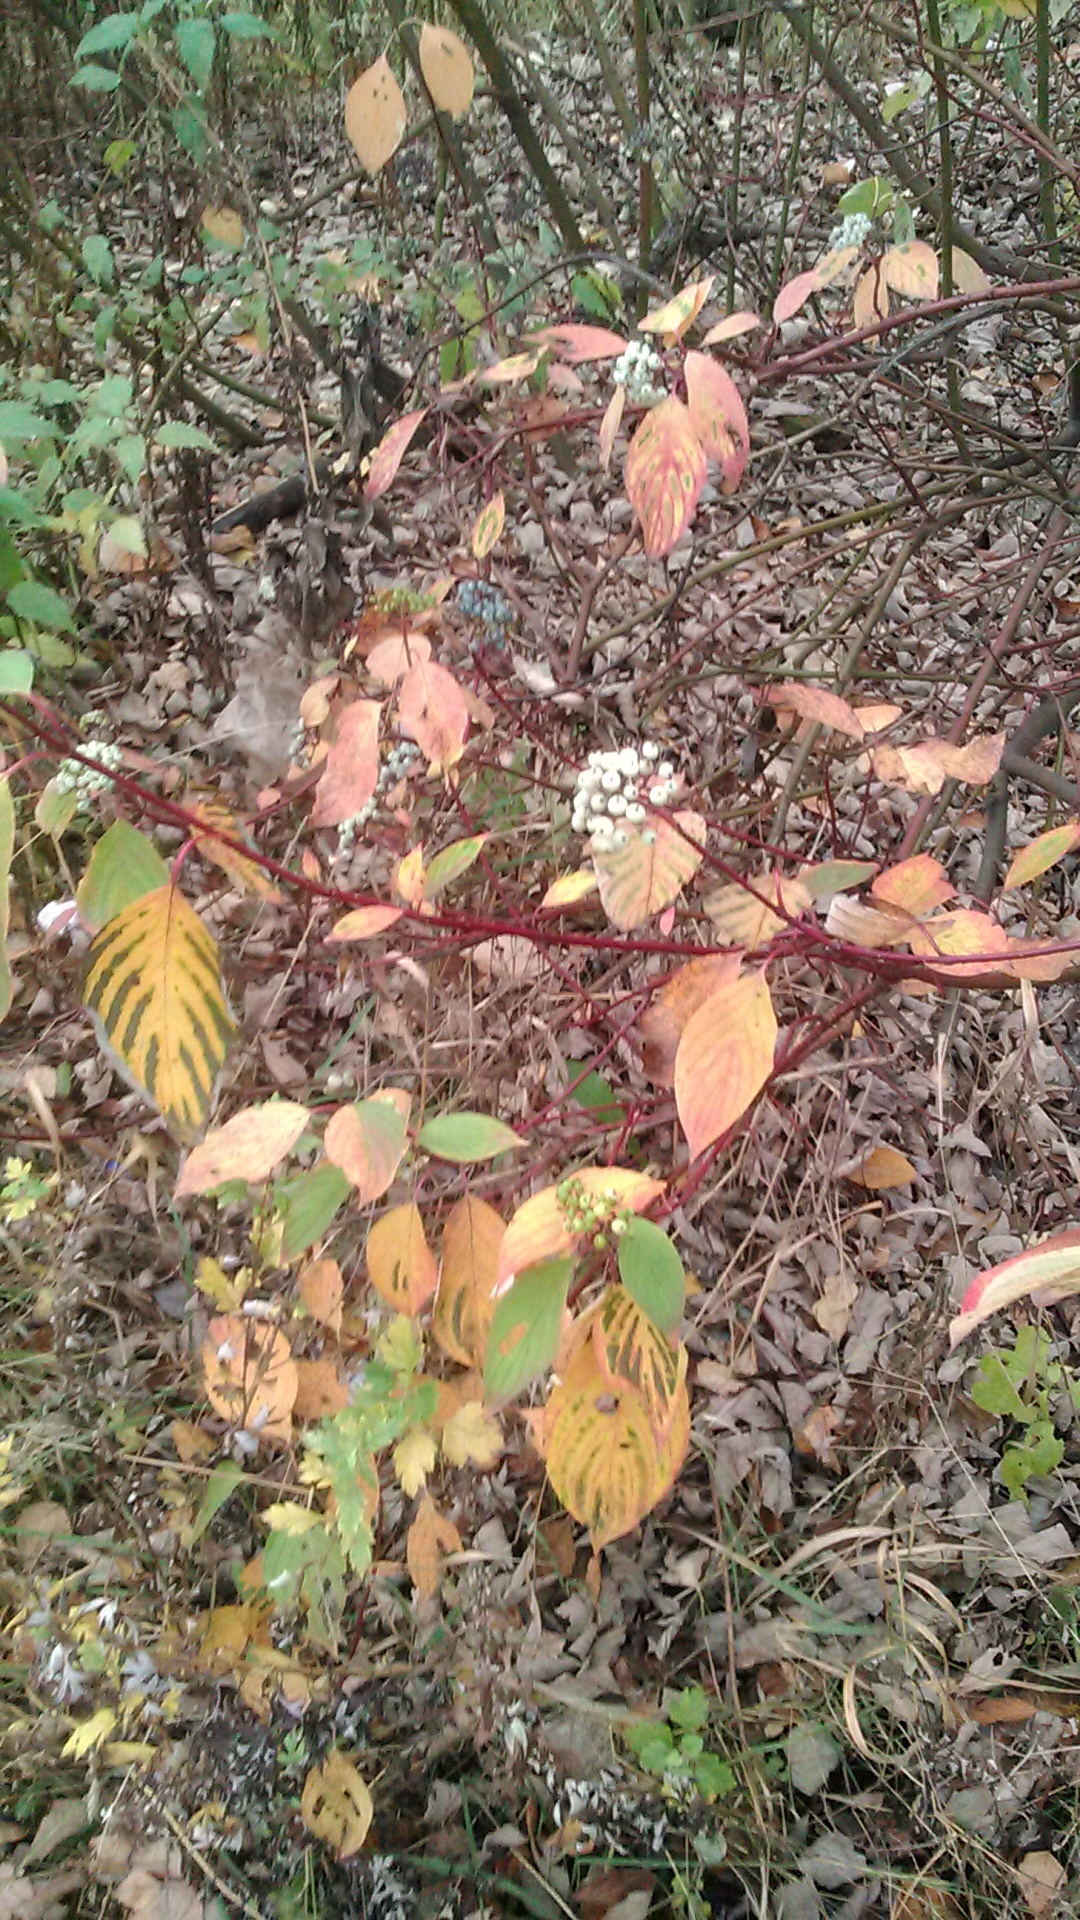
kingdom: Plantae
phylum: Tracheophyta
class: Magnoliopsida
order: Cornales
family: Cornaceae
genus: Cornus
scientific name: Cornus sericea
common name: Red-osier dogwood
